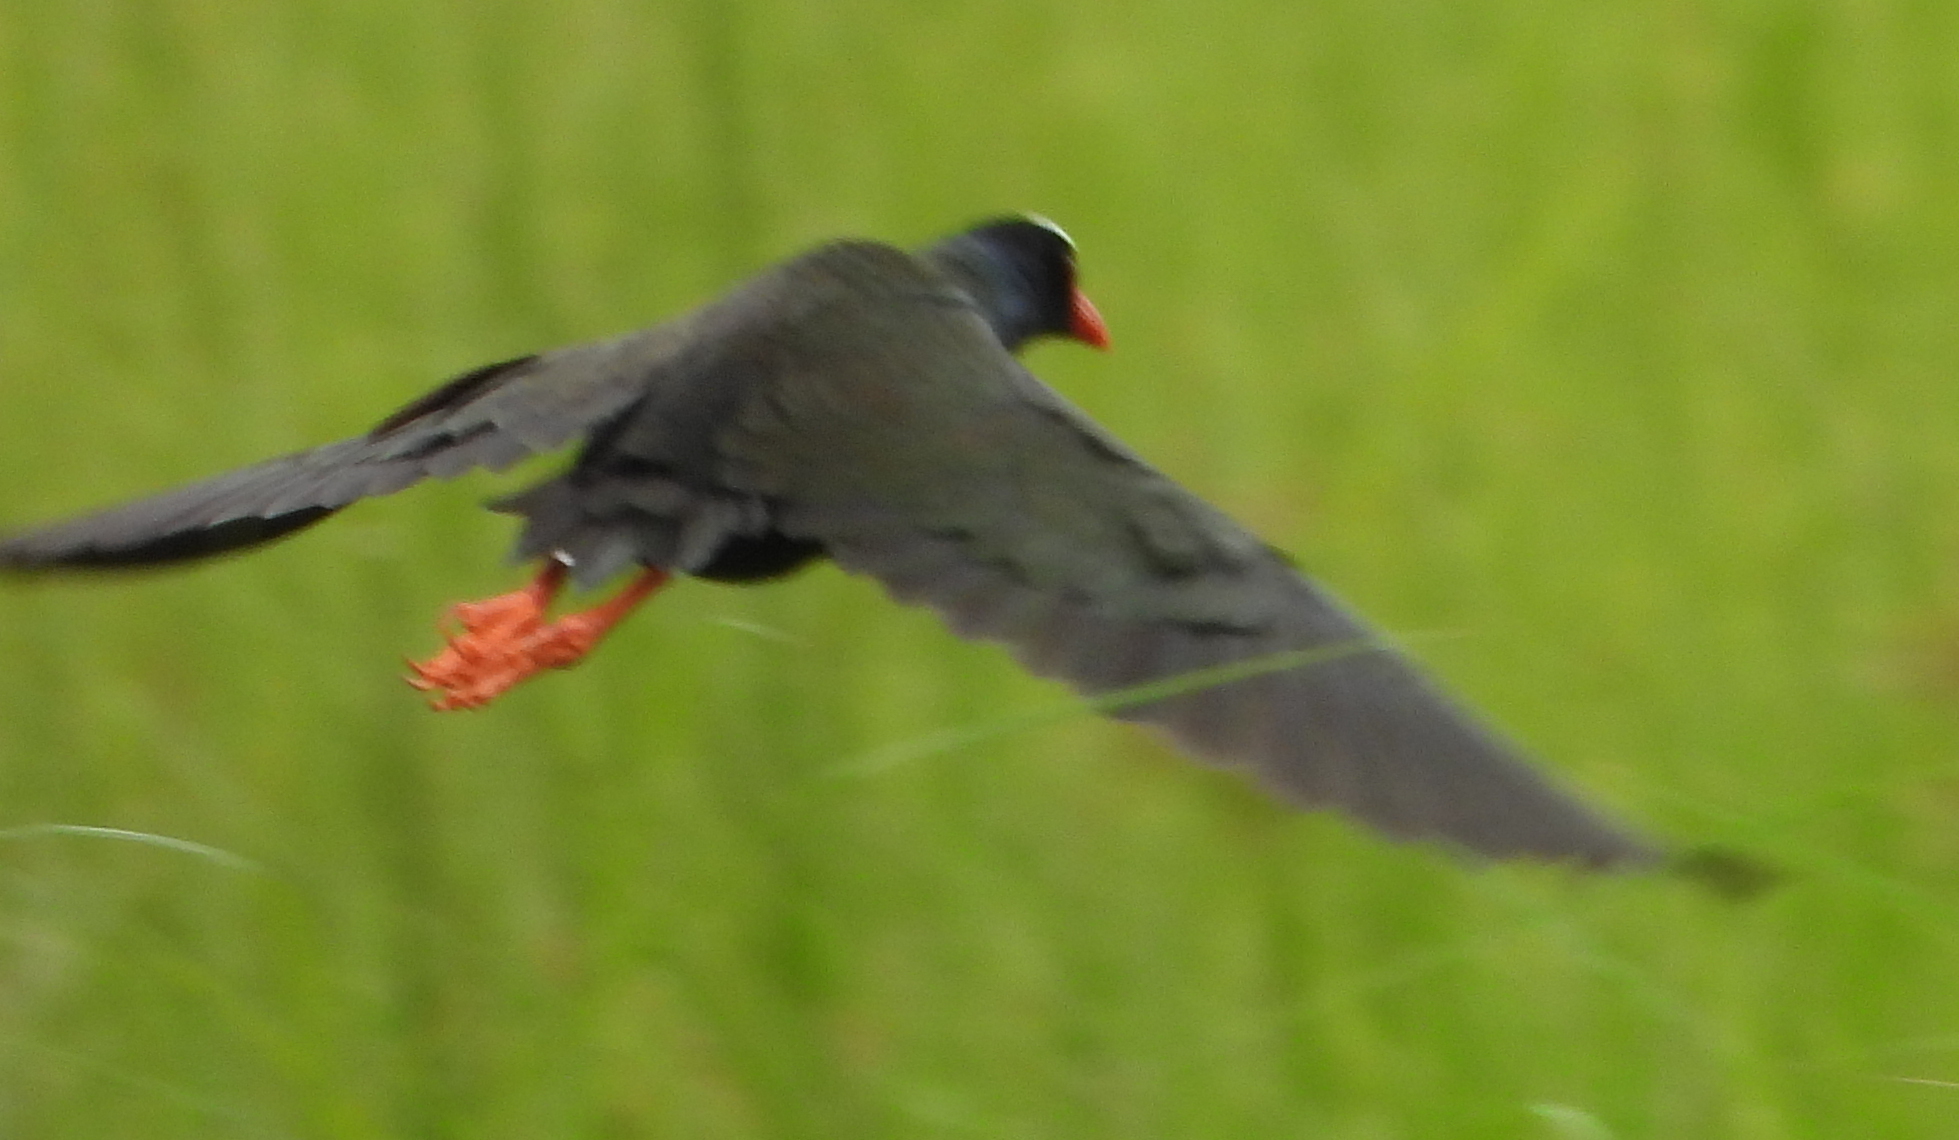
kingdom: Animalia
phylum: Chordata
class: Aves
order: Gruiformes
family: Rallidae
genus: Porphyrio
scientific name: Porphyrio alleni
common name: Allen's gallinule
